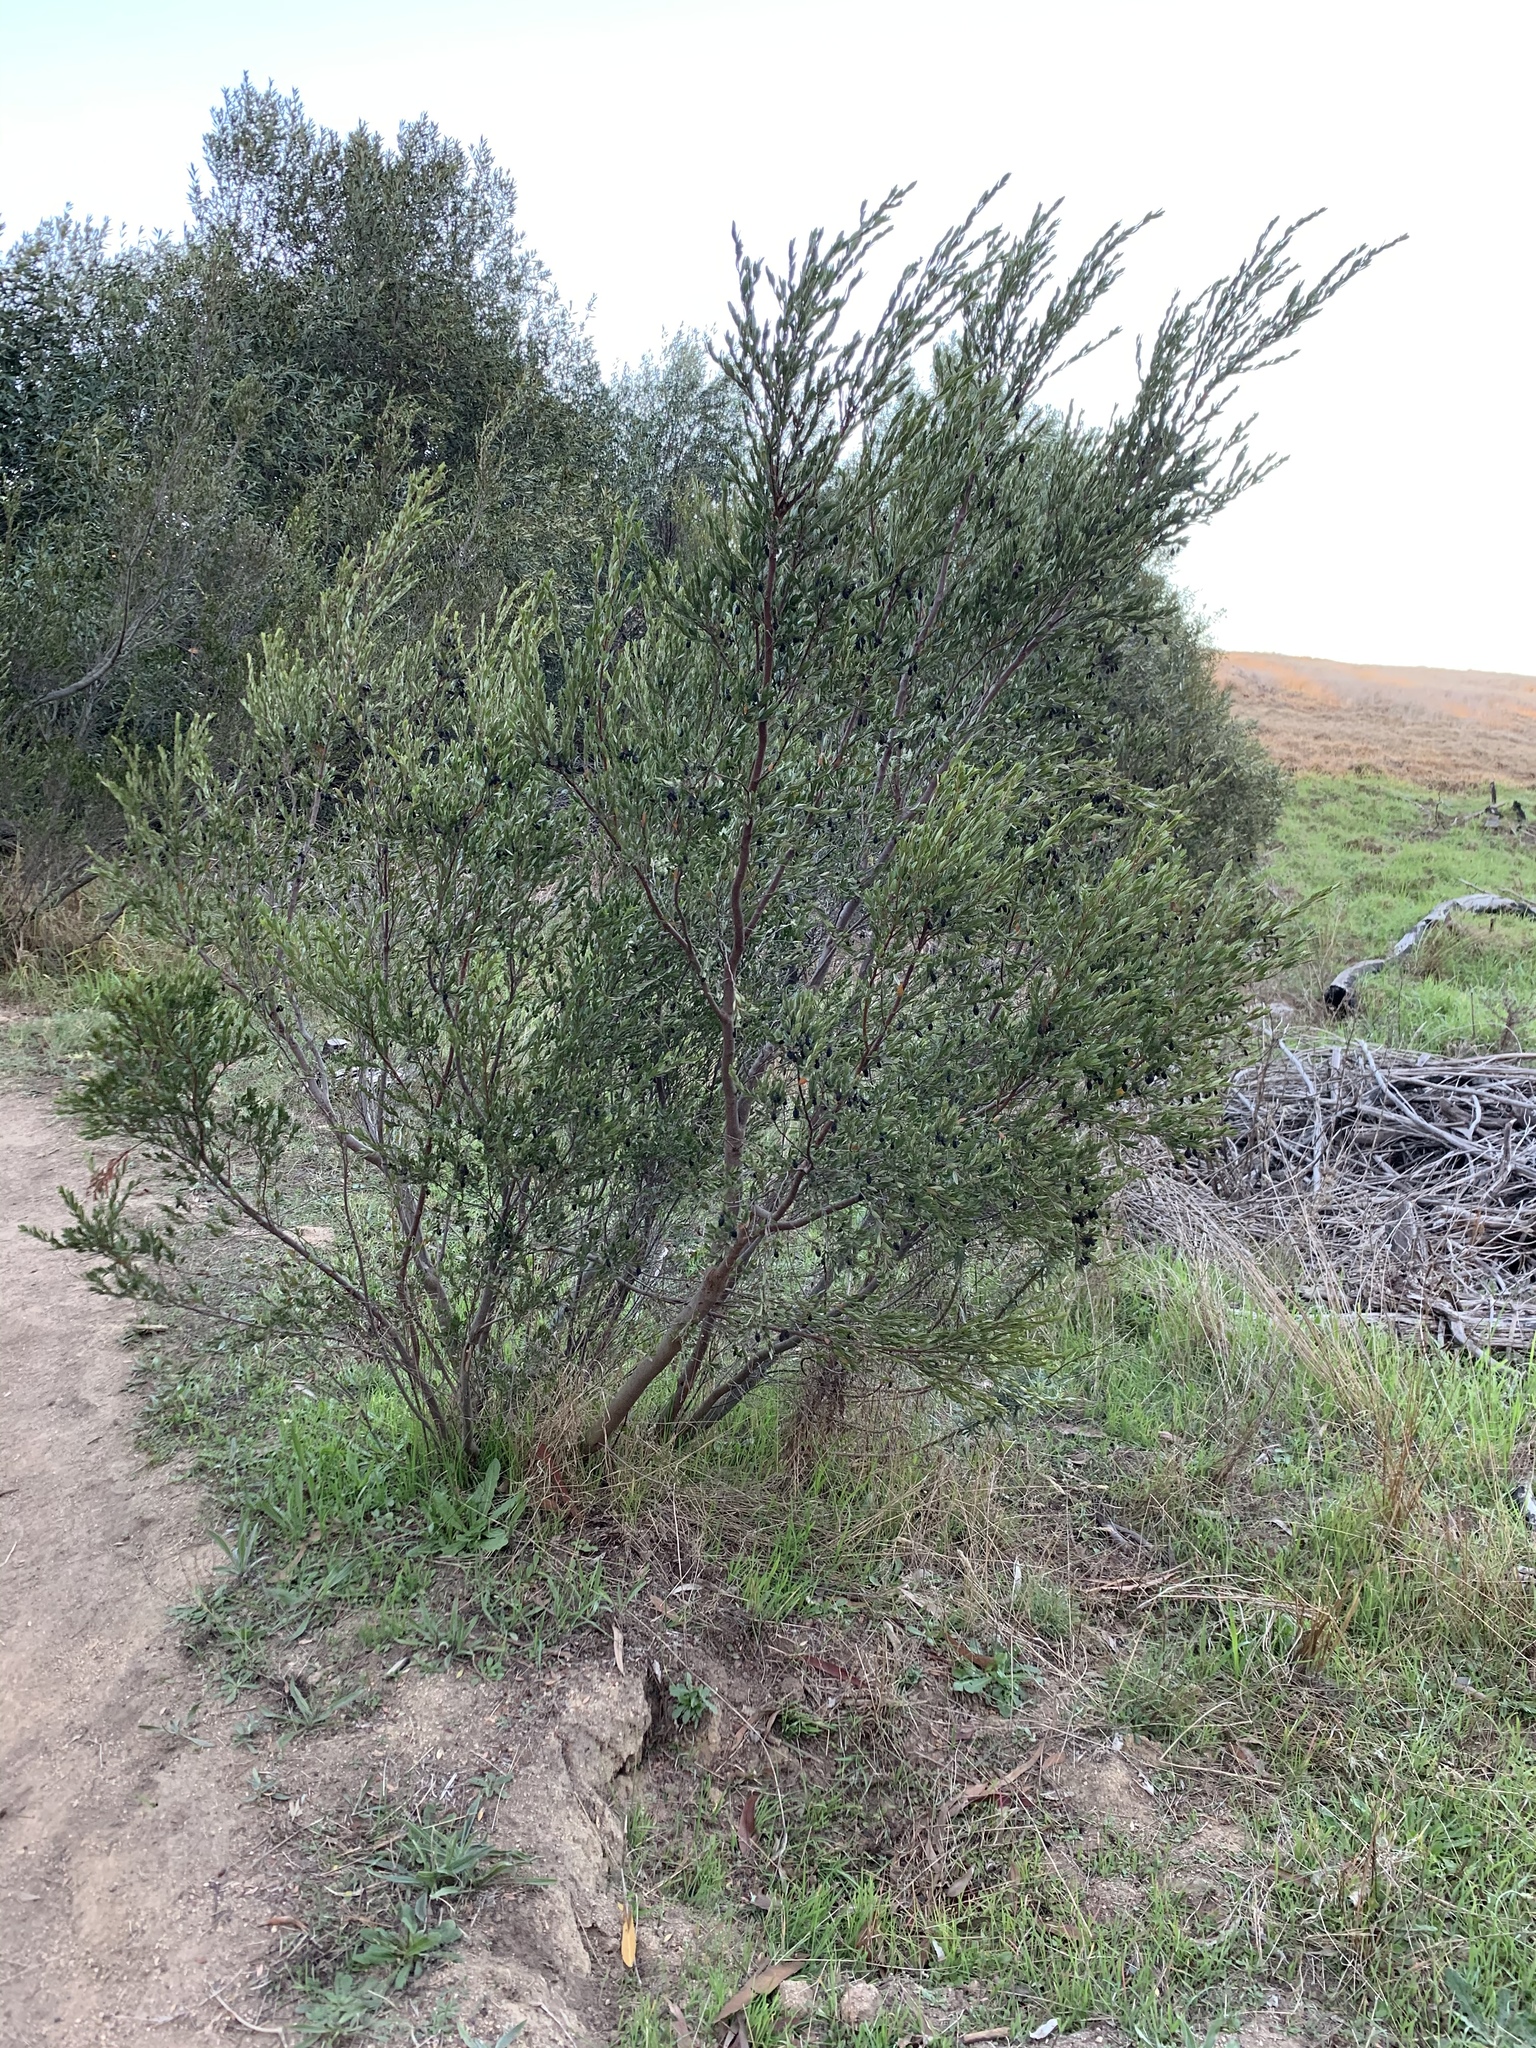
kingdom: Plantae
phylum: Tracheophyta
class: Magnoliopsida
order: Ericales
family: Ebenaceae
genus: Diospyros
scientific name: Diospyros glabra
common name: Fynbos star apple
